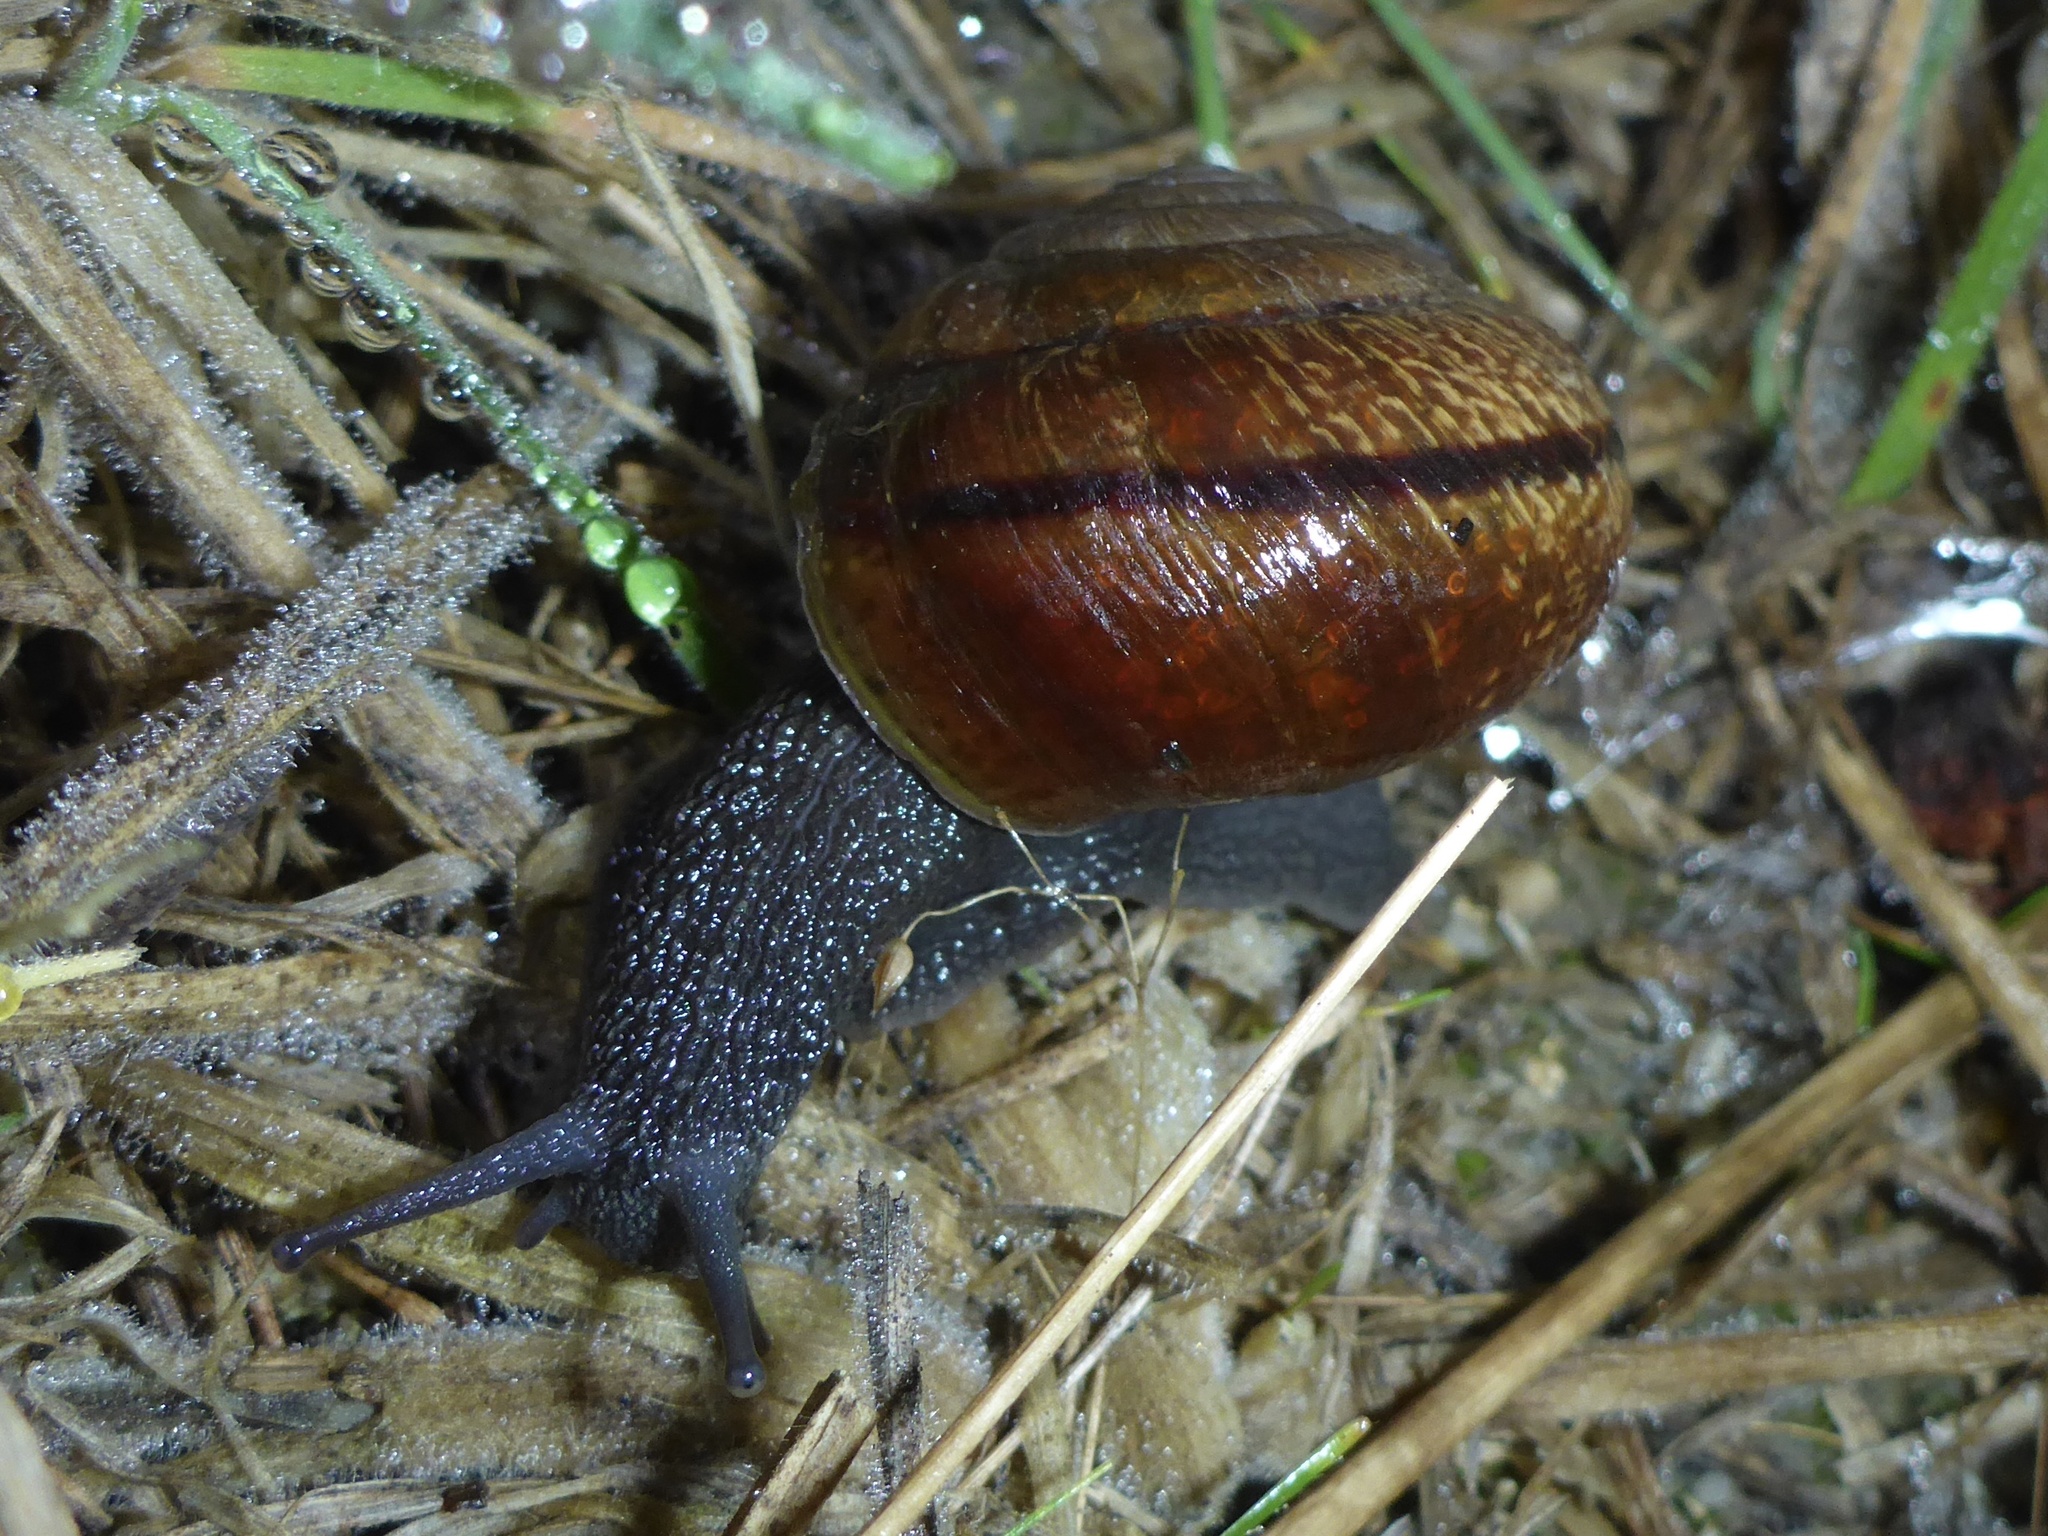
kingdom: Animalia
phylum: Mollusca
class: Gastropoda
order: Stylommatophora
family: Xanthonychidae
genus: Helminthoglypta
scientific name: Helminthoglypta arrosa
